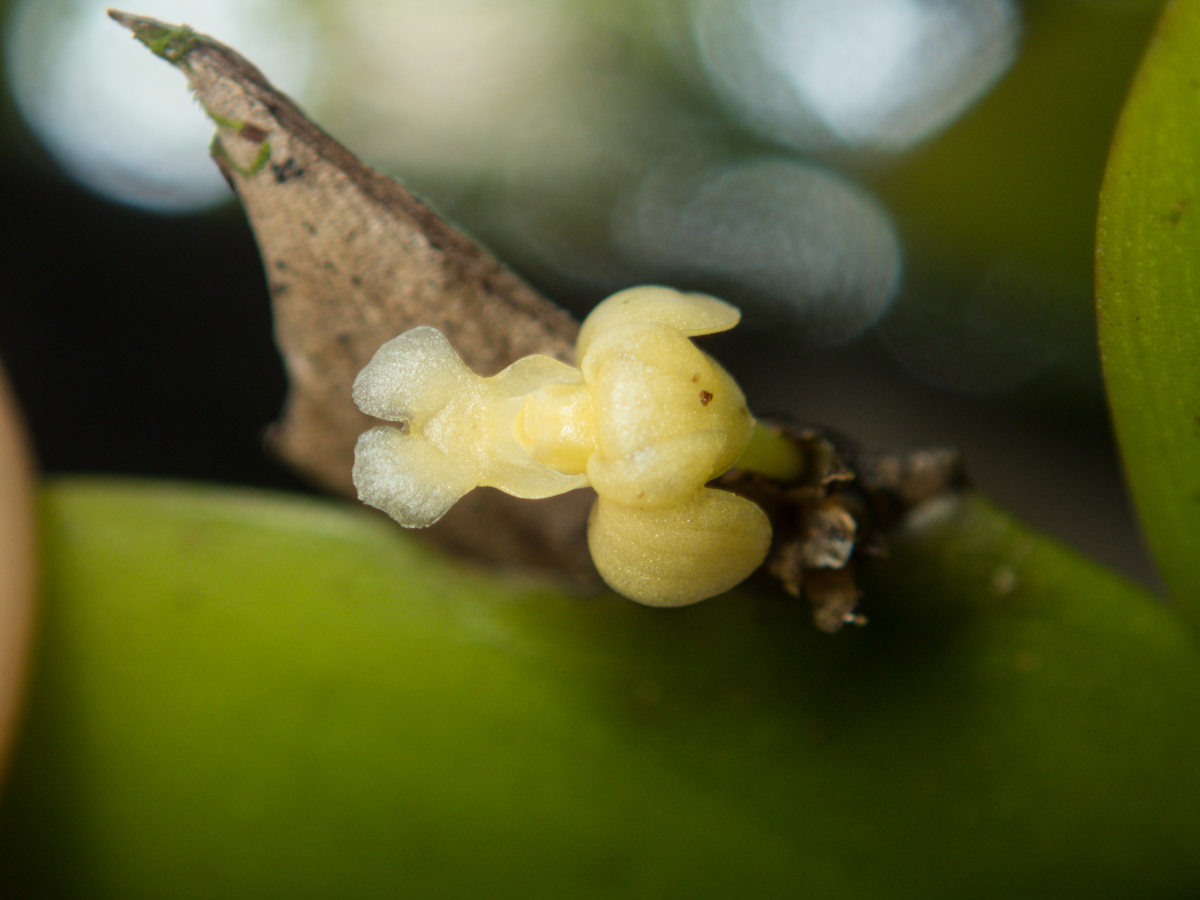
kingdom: Plantae
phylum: Tracheophyta
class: Liliopsida
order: Asparagales
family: Orchidaceae
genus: Dendrobium
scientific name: Dendrobium aloifolium
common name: Aloe-like dendrobium
